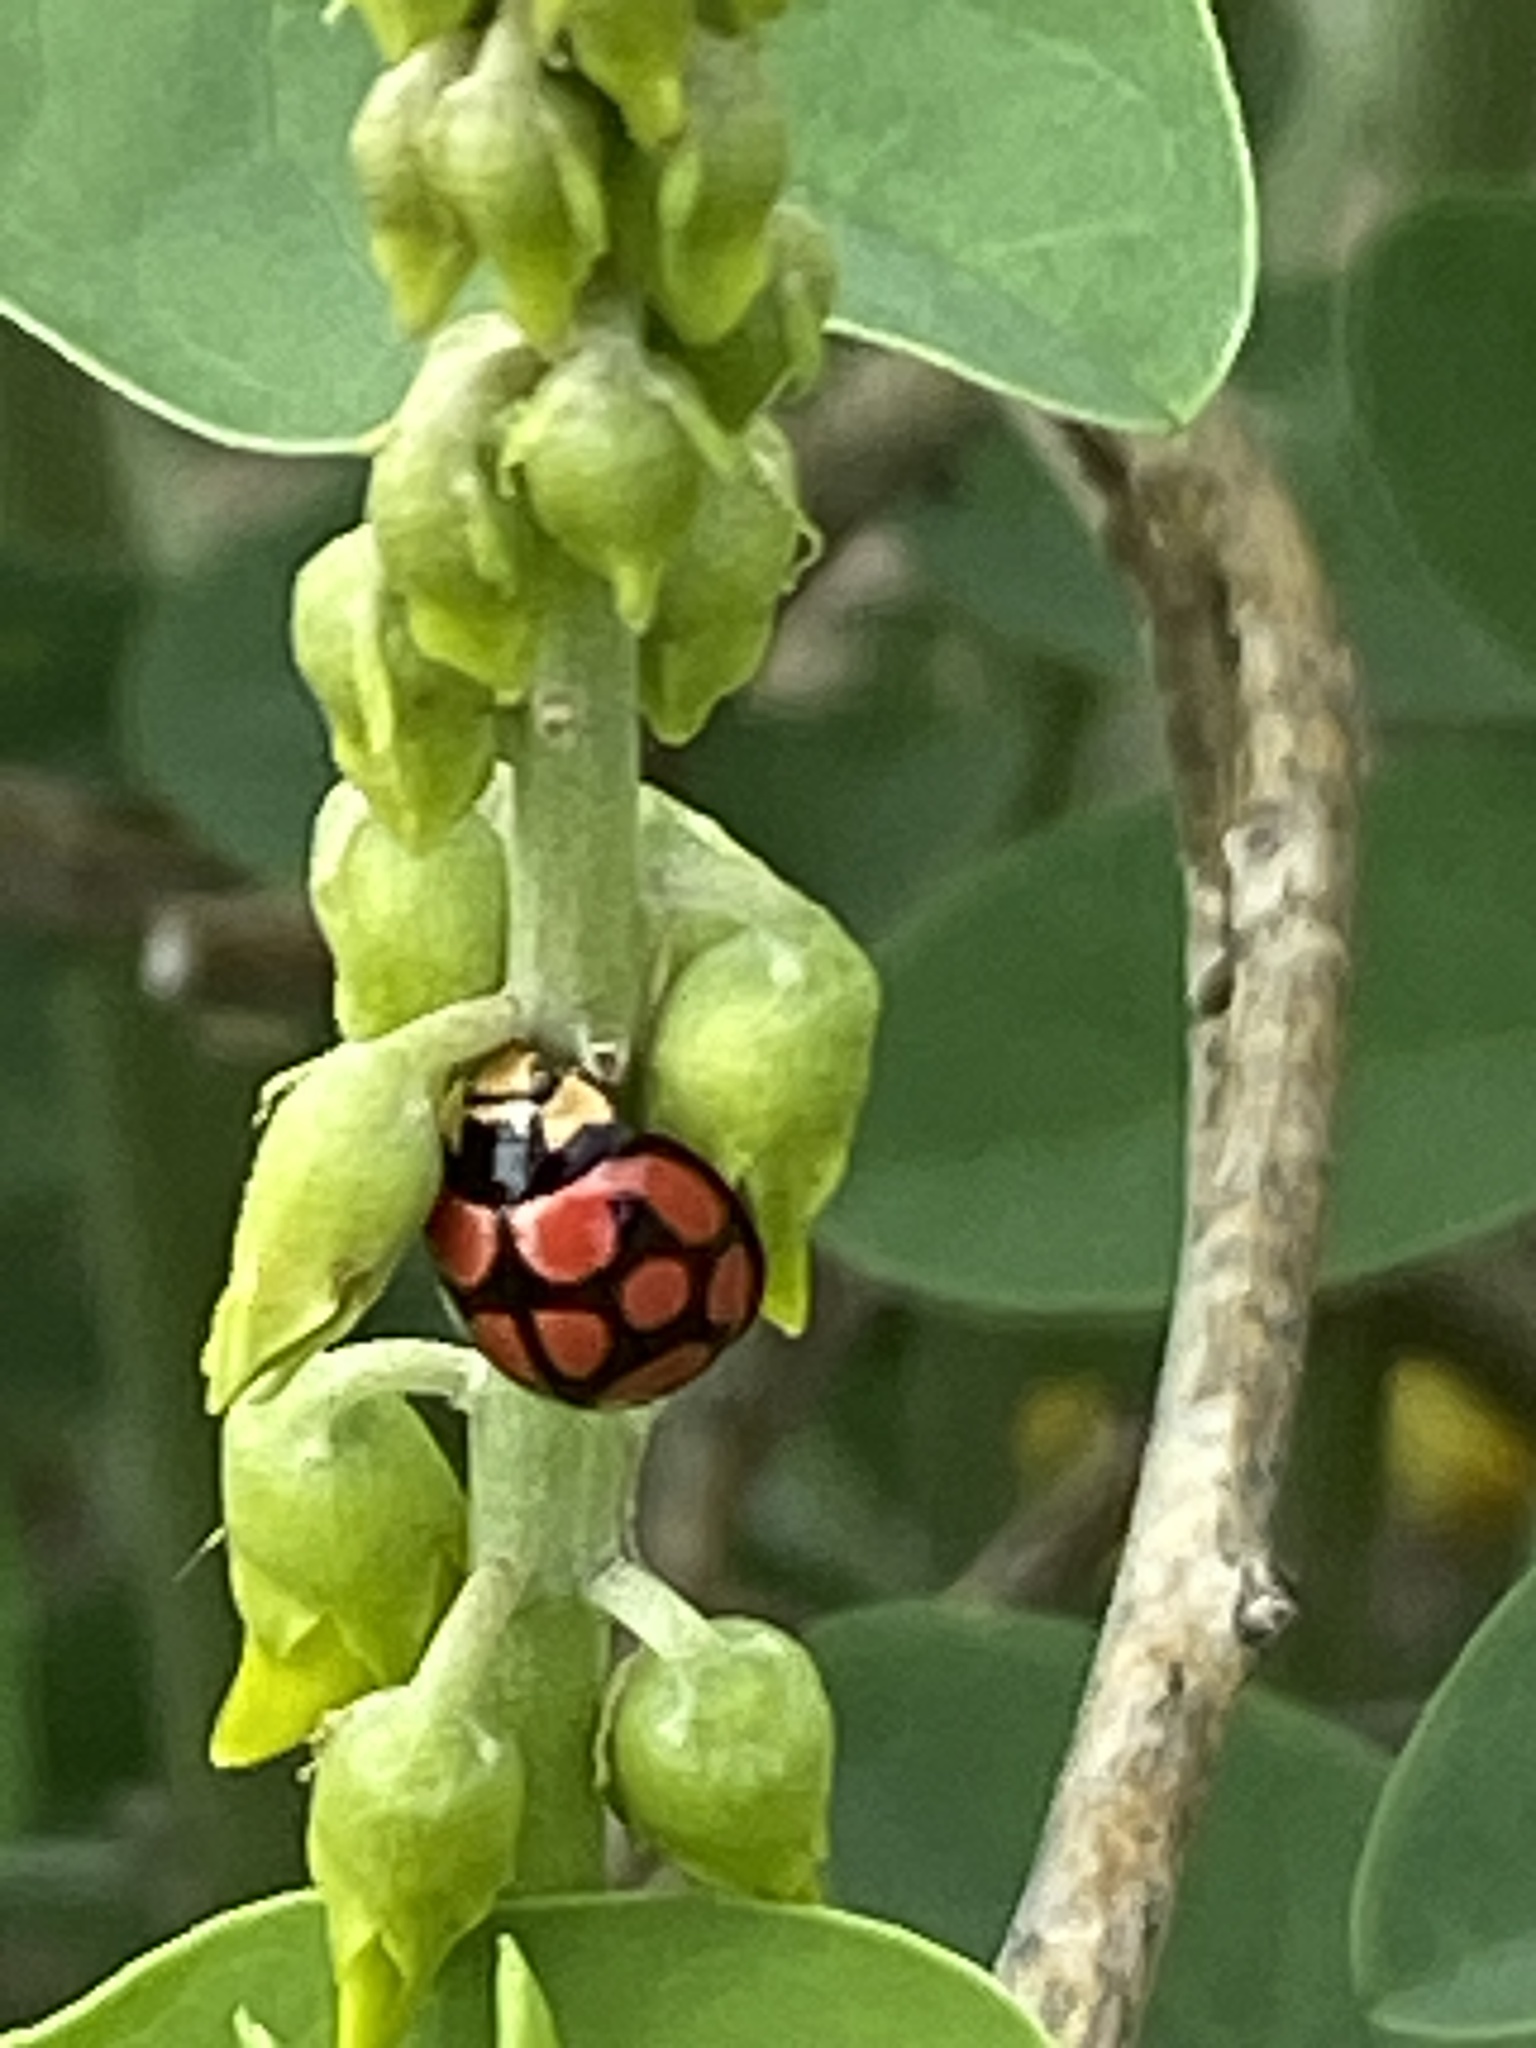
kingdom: Animalia
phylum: Arthropoda
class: Insecta
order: Coleoptera
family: Coccinellidae
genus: Cheilomenes
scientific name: Cheilomenes lunata
